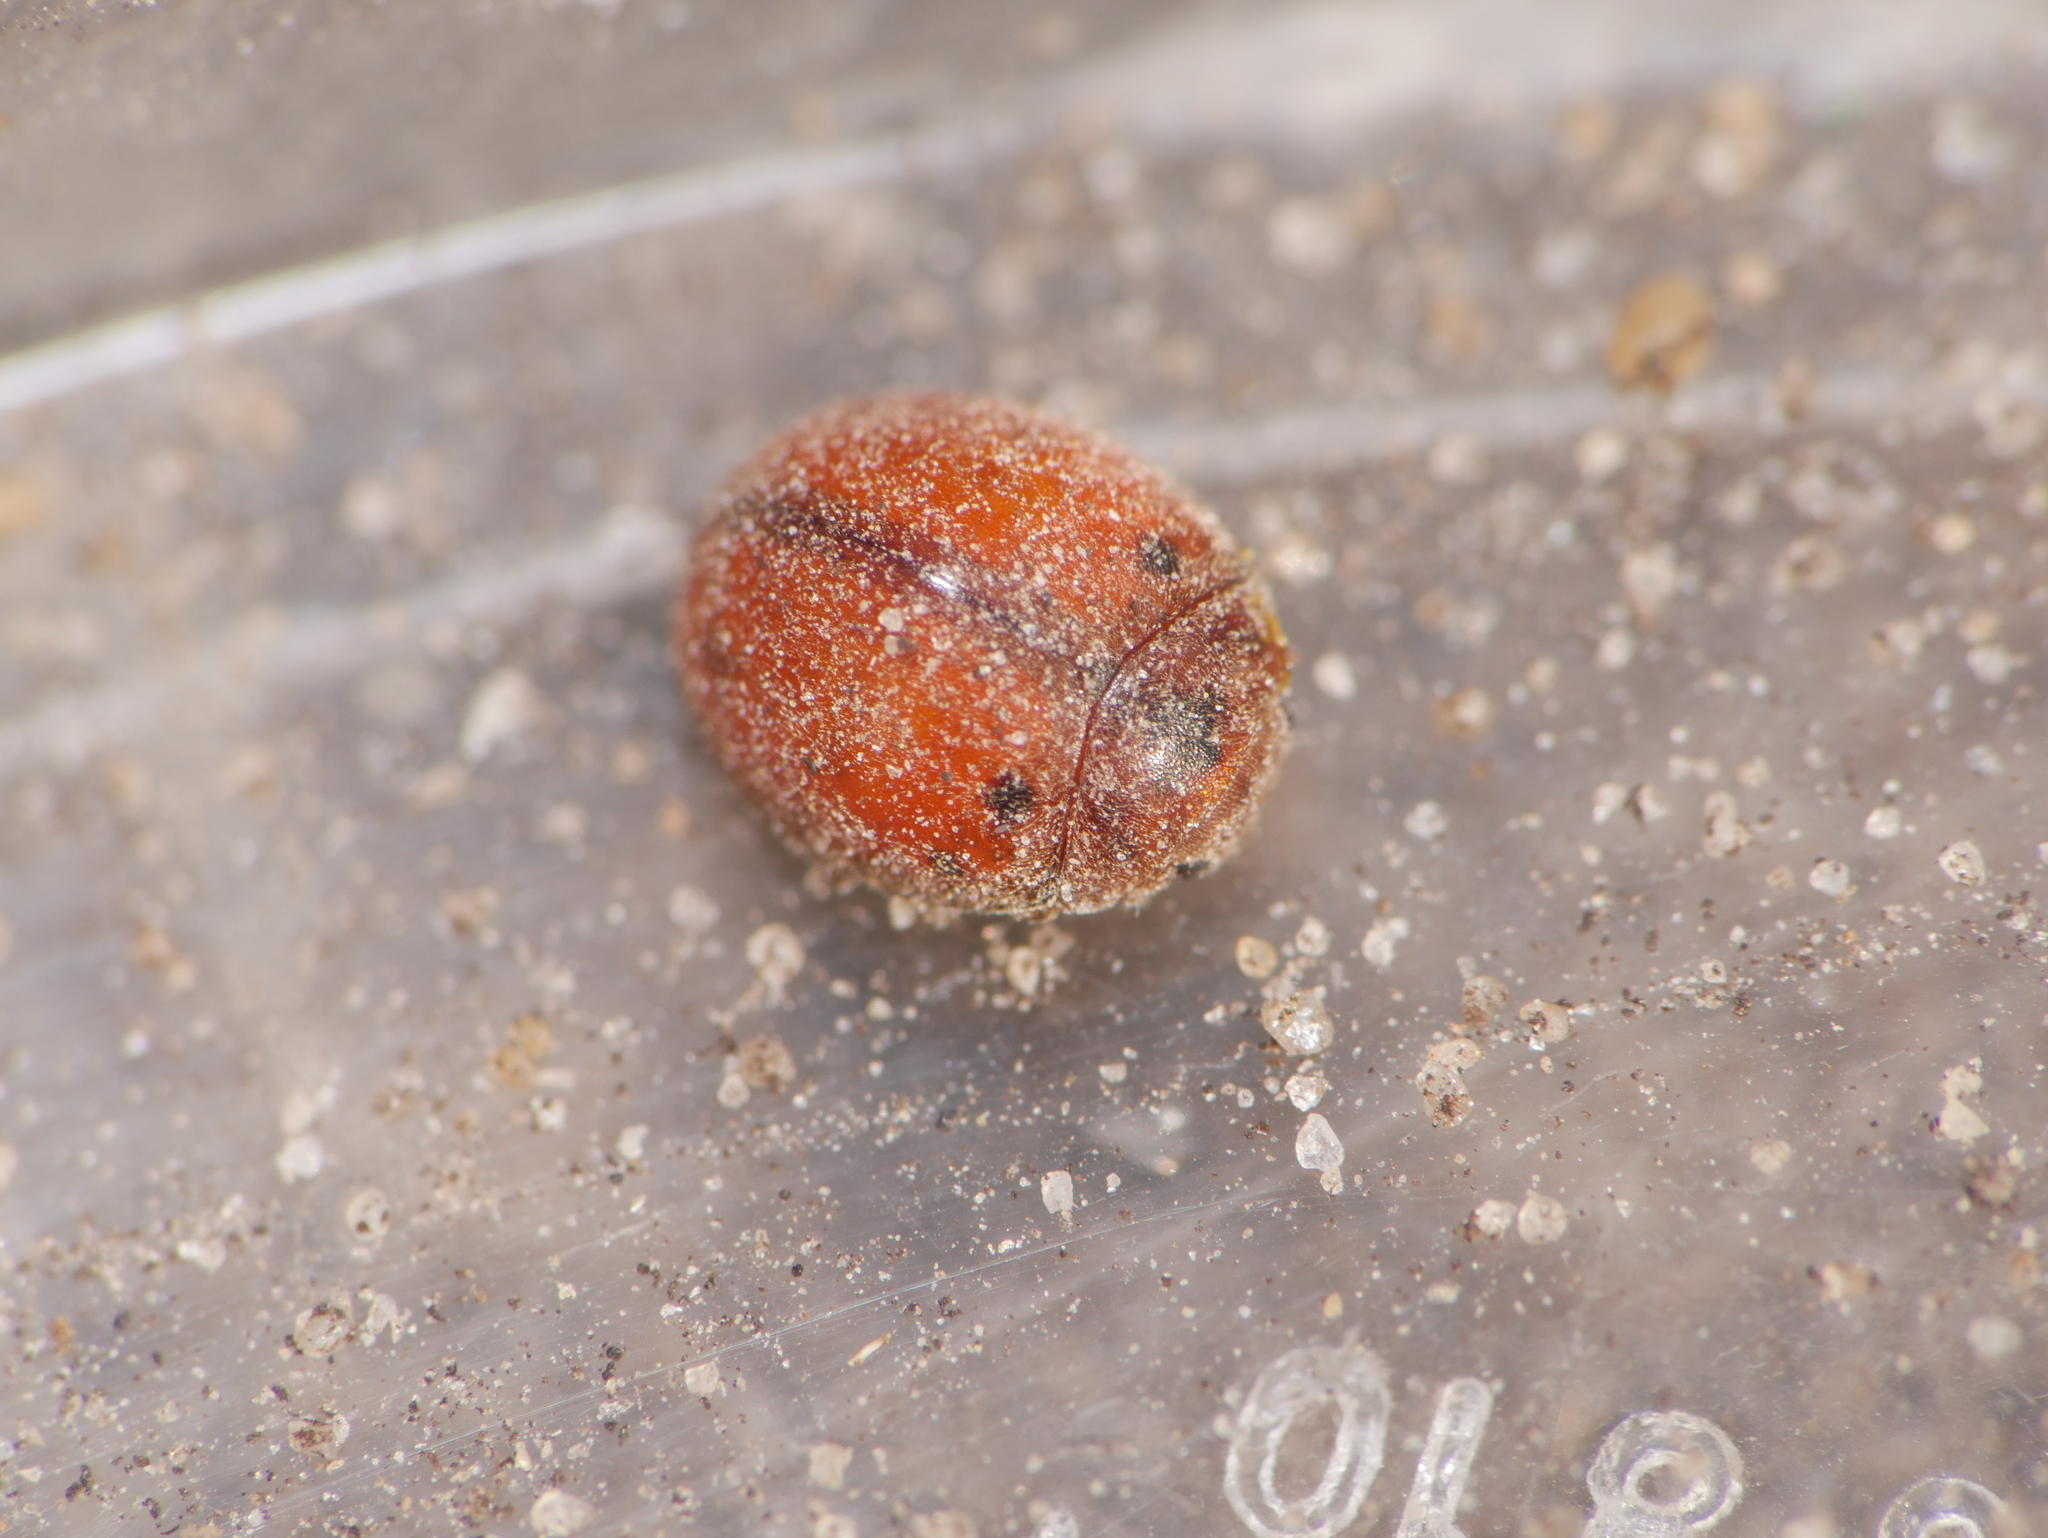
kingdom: Animalia
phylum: Arthropoda
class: Insecta
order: Coleoptera
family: Coccinellidae
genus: Subcoccinella
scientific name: Subcoccinella vigintiquatuorpunctata
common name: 24-spot ladybird
